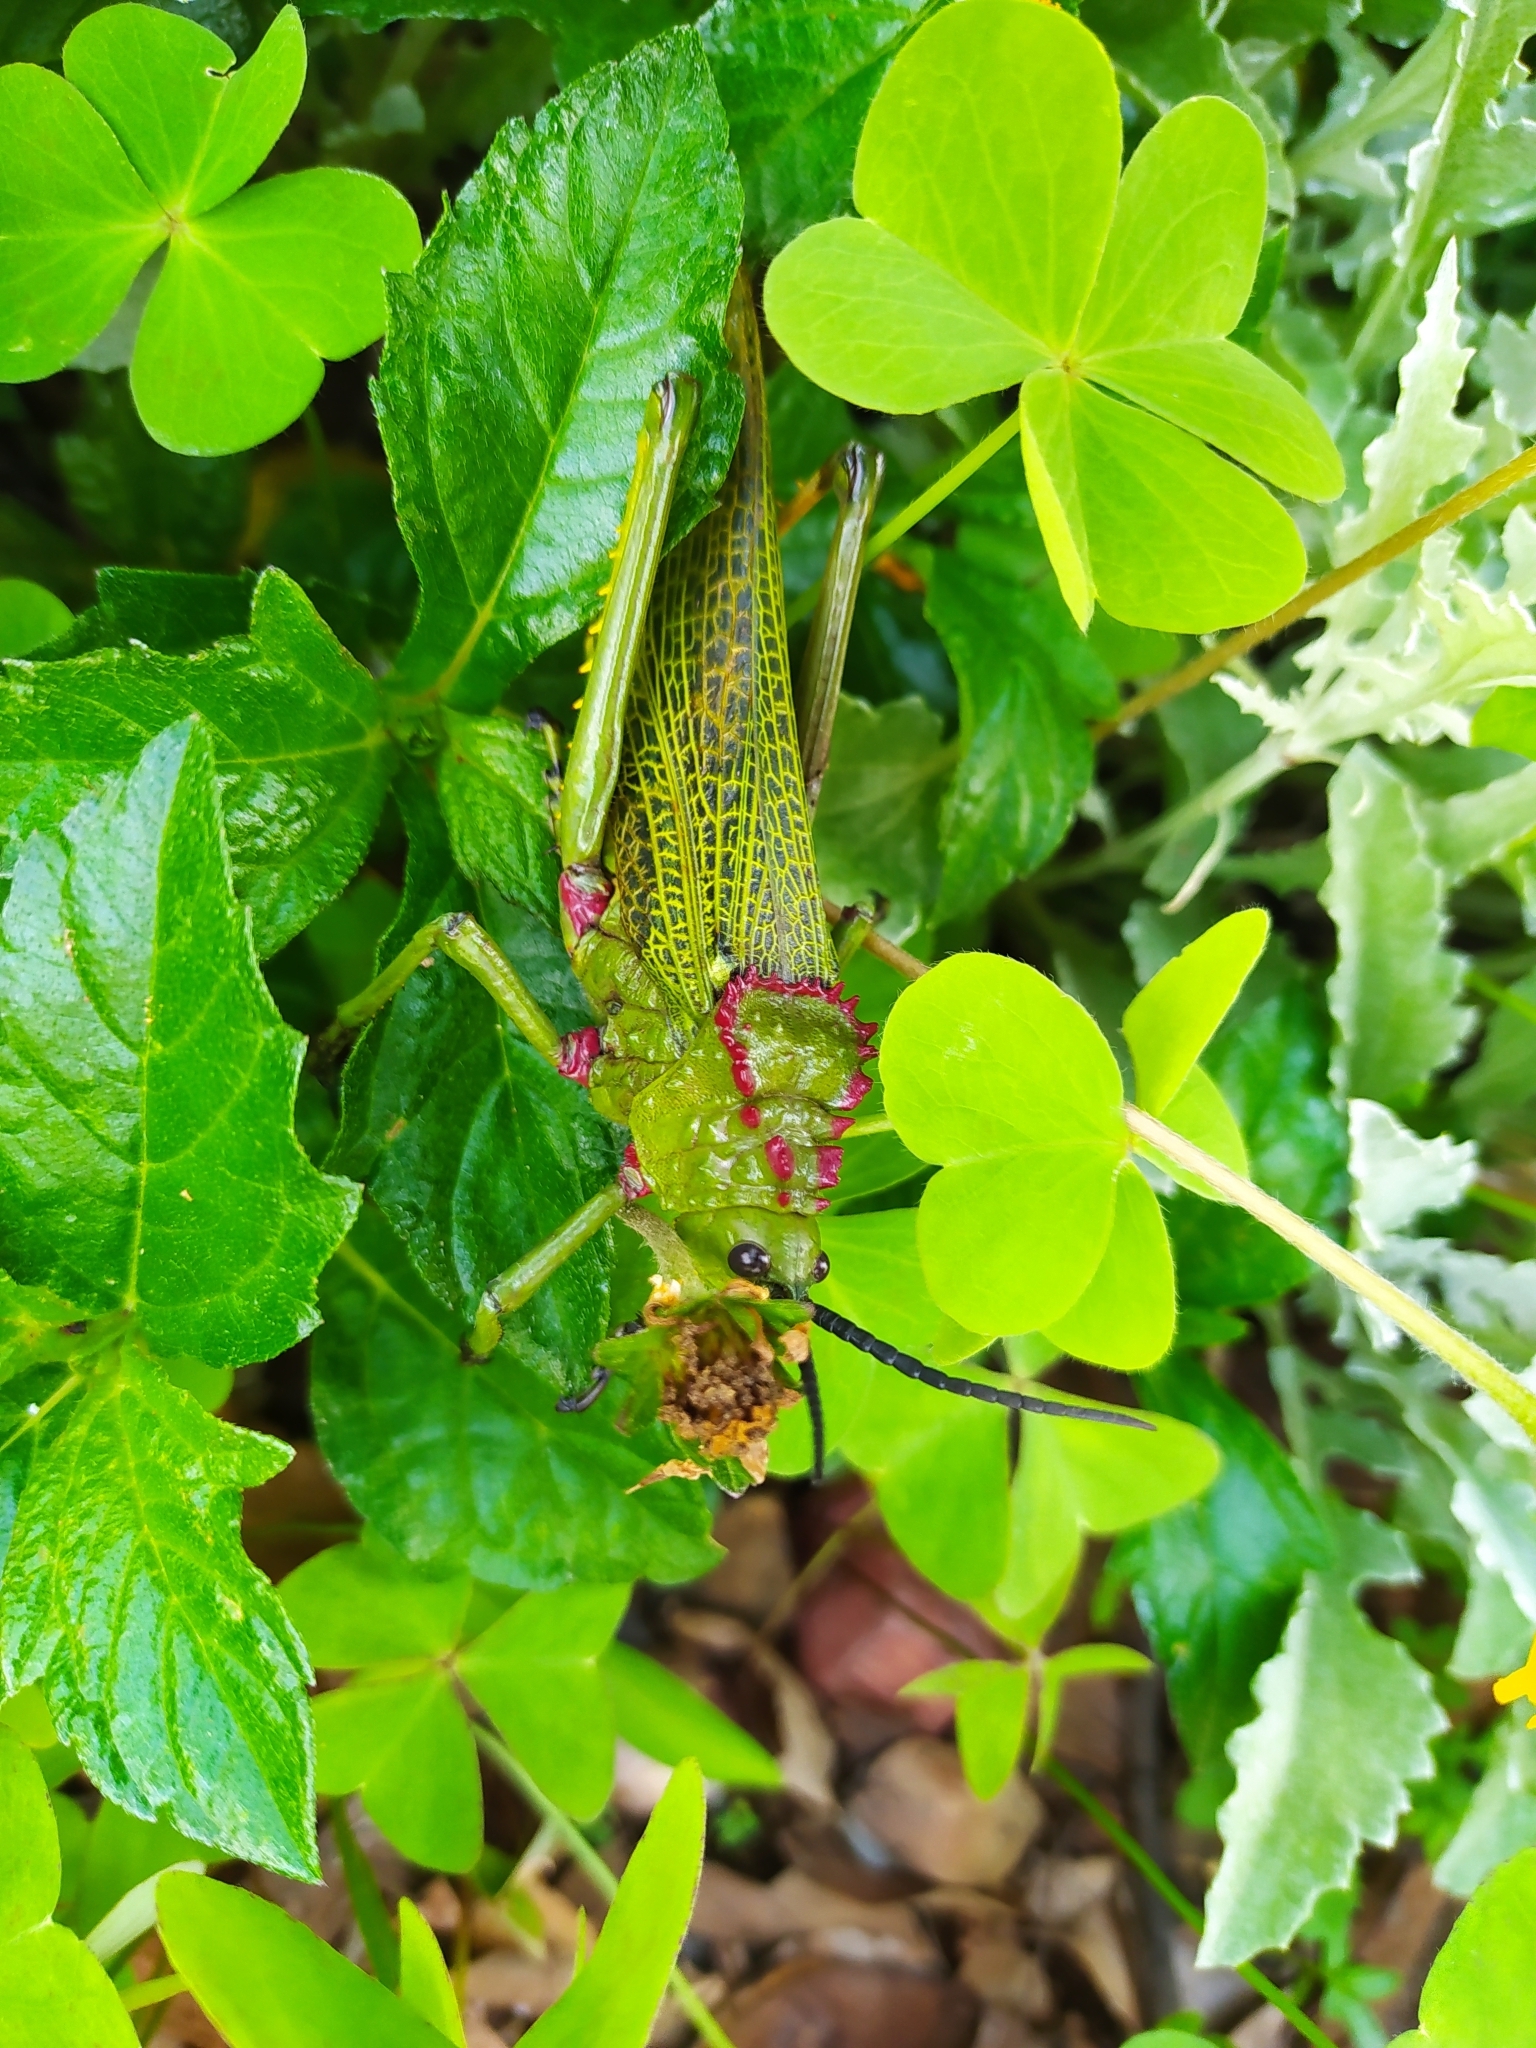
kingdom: Animalia
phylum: Arthropoda
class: Insecta
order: Orthoptera
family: Pyrgomorphidae
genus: Phymateus
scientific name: Phymateus viridipes
